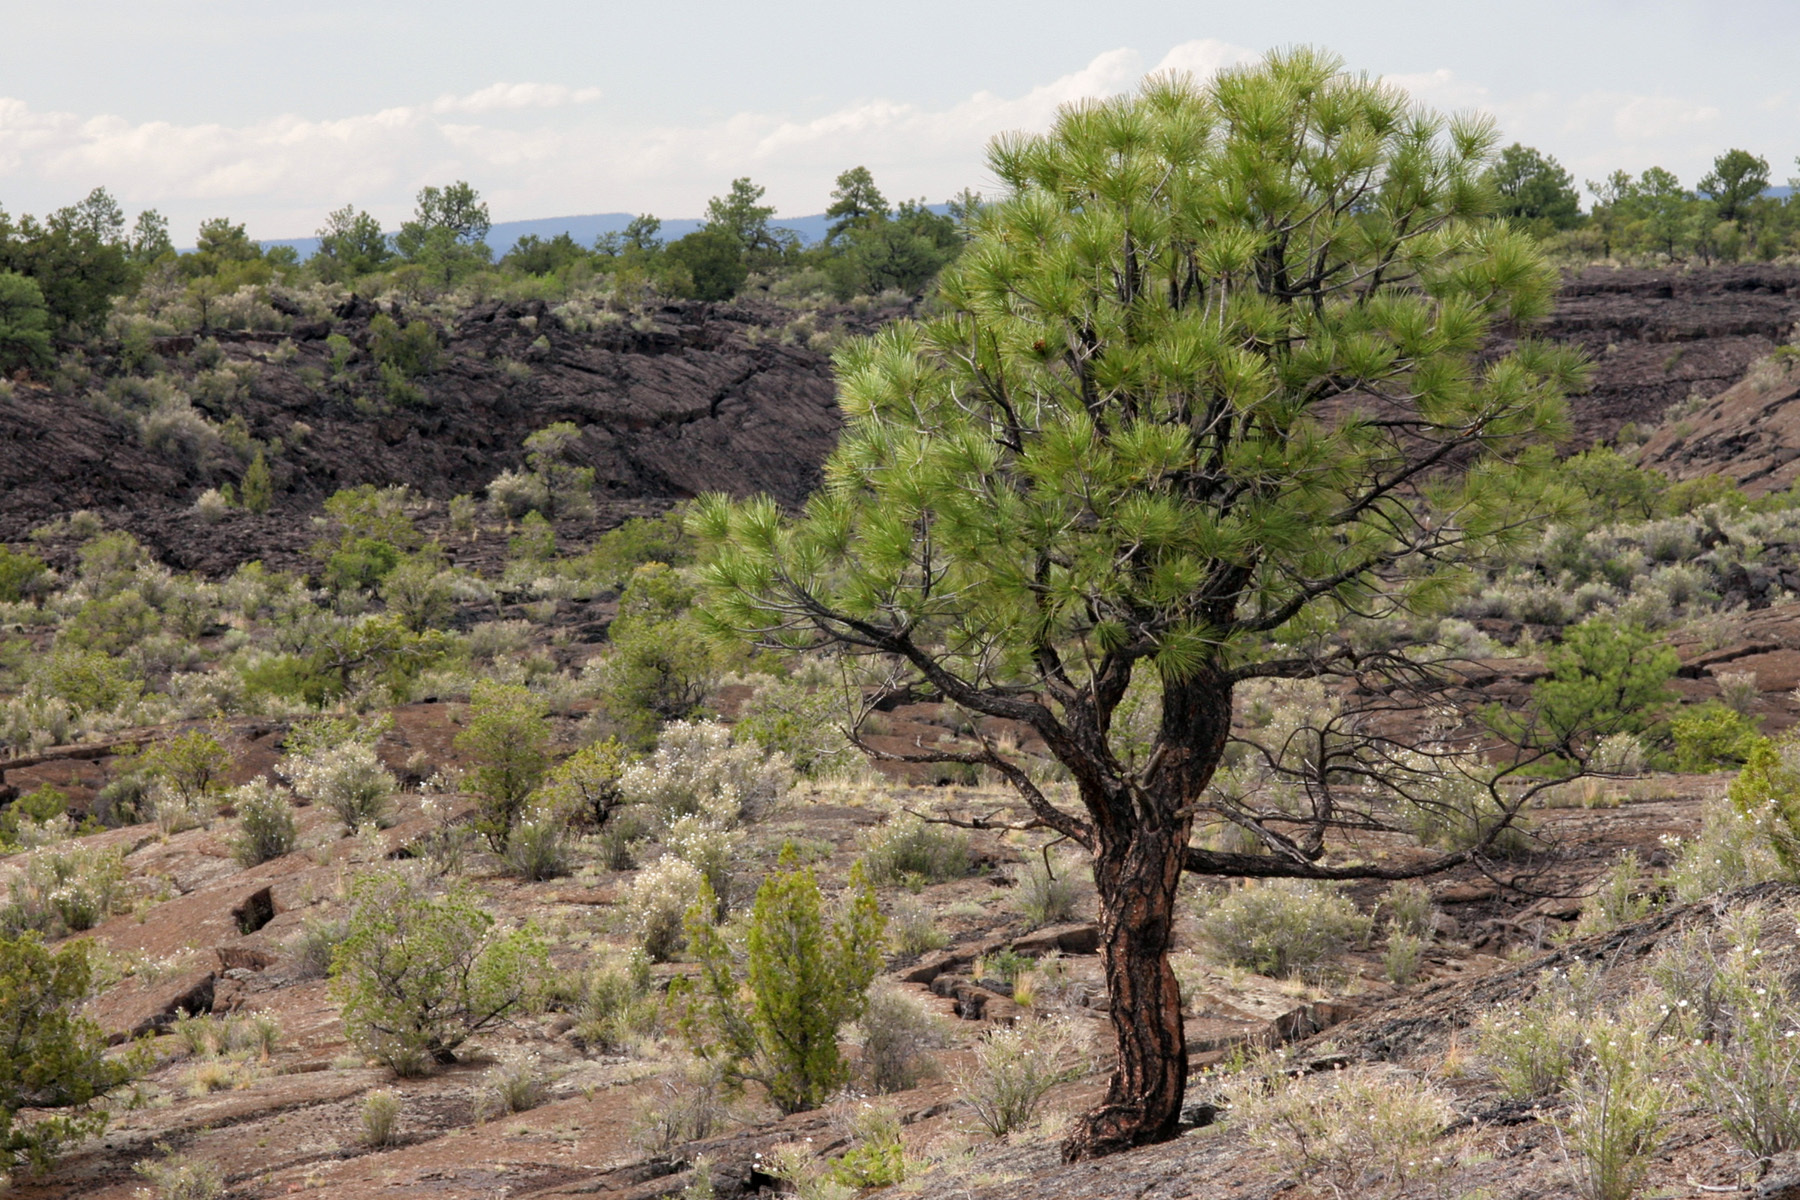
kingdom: Plantae
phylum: Tracheophyta
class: Pinopsida
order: Pinales
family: Pinaceae
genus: Pinus
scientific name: Pinus ponderosa
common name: Western yellow-pine
